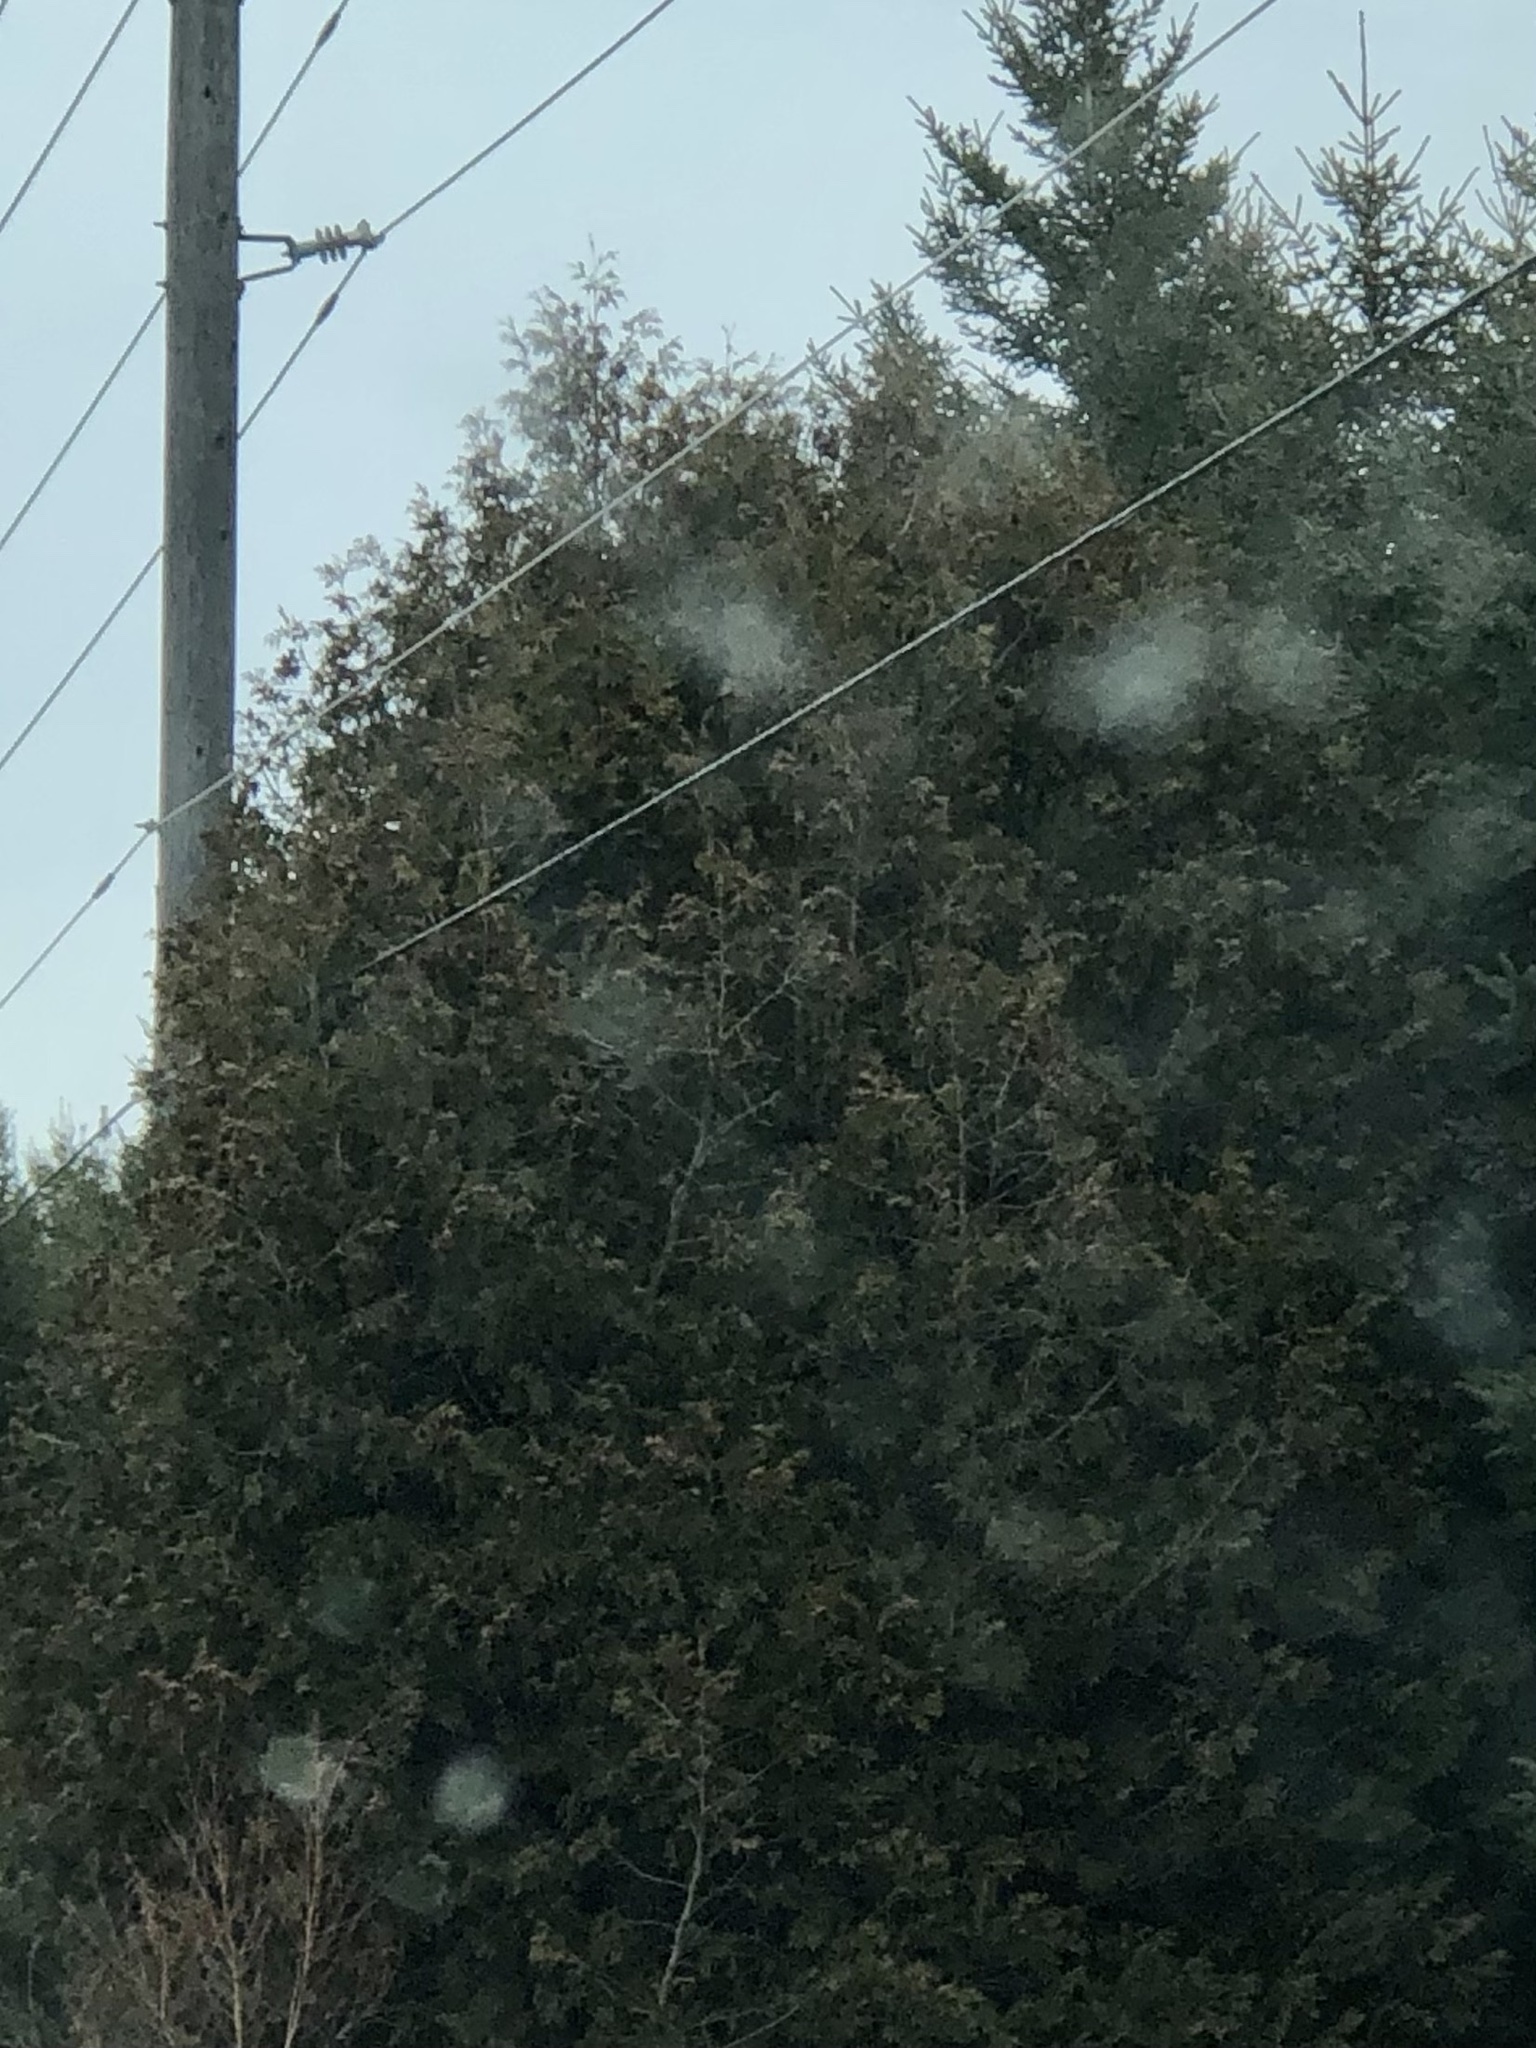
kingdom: Plantae
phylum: Tracheophyta
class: Pinopsida
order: Pinales
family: Cupressaceae
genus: Thuja
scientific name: Thuja occidentalis
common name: Northern white-cedar
